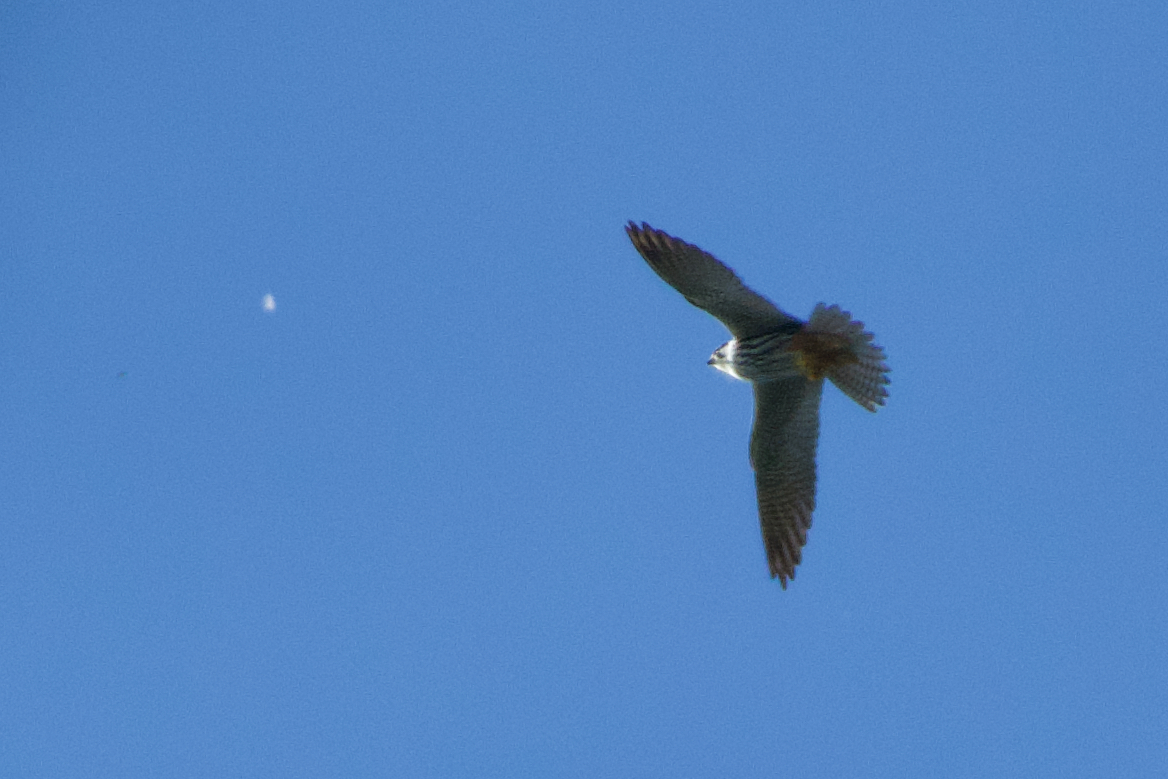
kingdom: Animalia
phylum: Chordata
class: Aves
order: Falconiformes
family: Falconidae
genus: Falco
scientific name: Falco subbuteo
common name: Eurasian hobby
